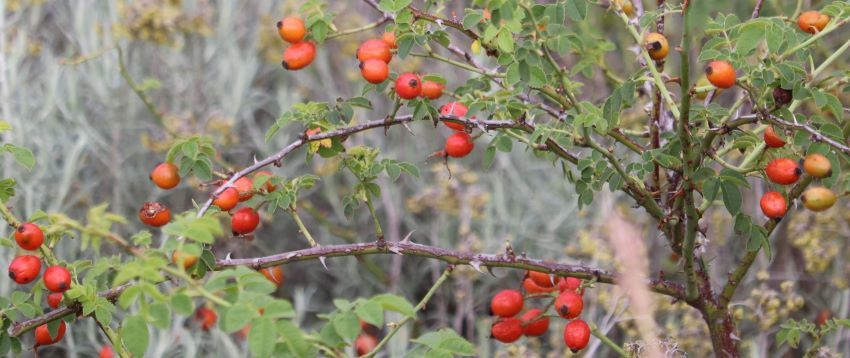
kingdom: Plantae
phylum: Tracheophyta
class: Magnoliopsida
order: Rosales
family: Rosaceae
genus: Rosa
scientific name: Rosa rubiginosa
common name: Sweet-briar
